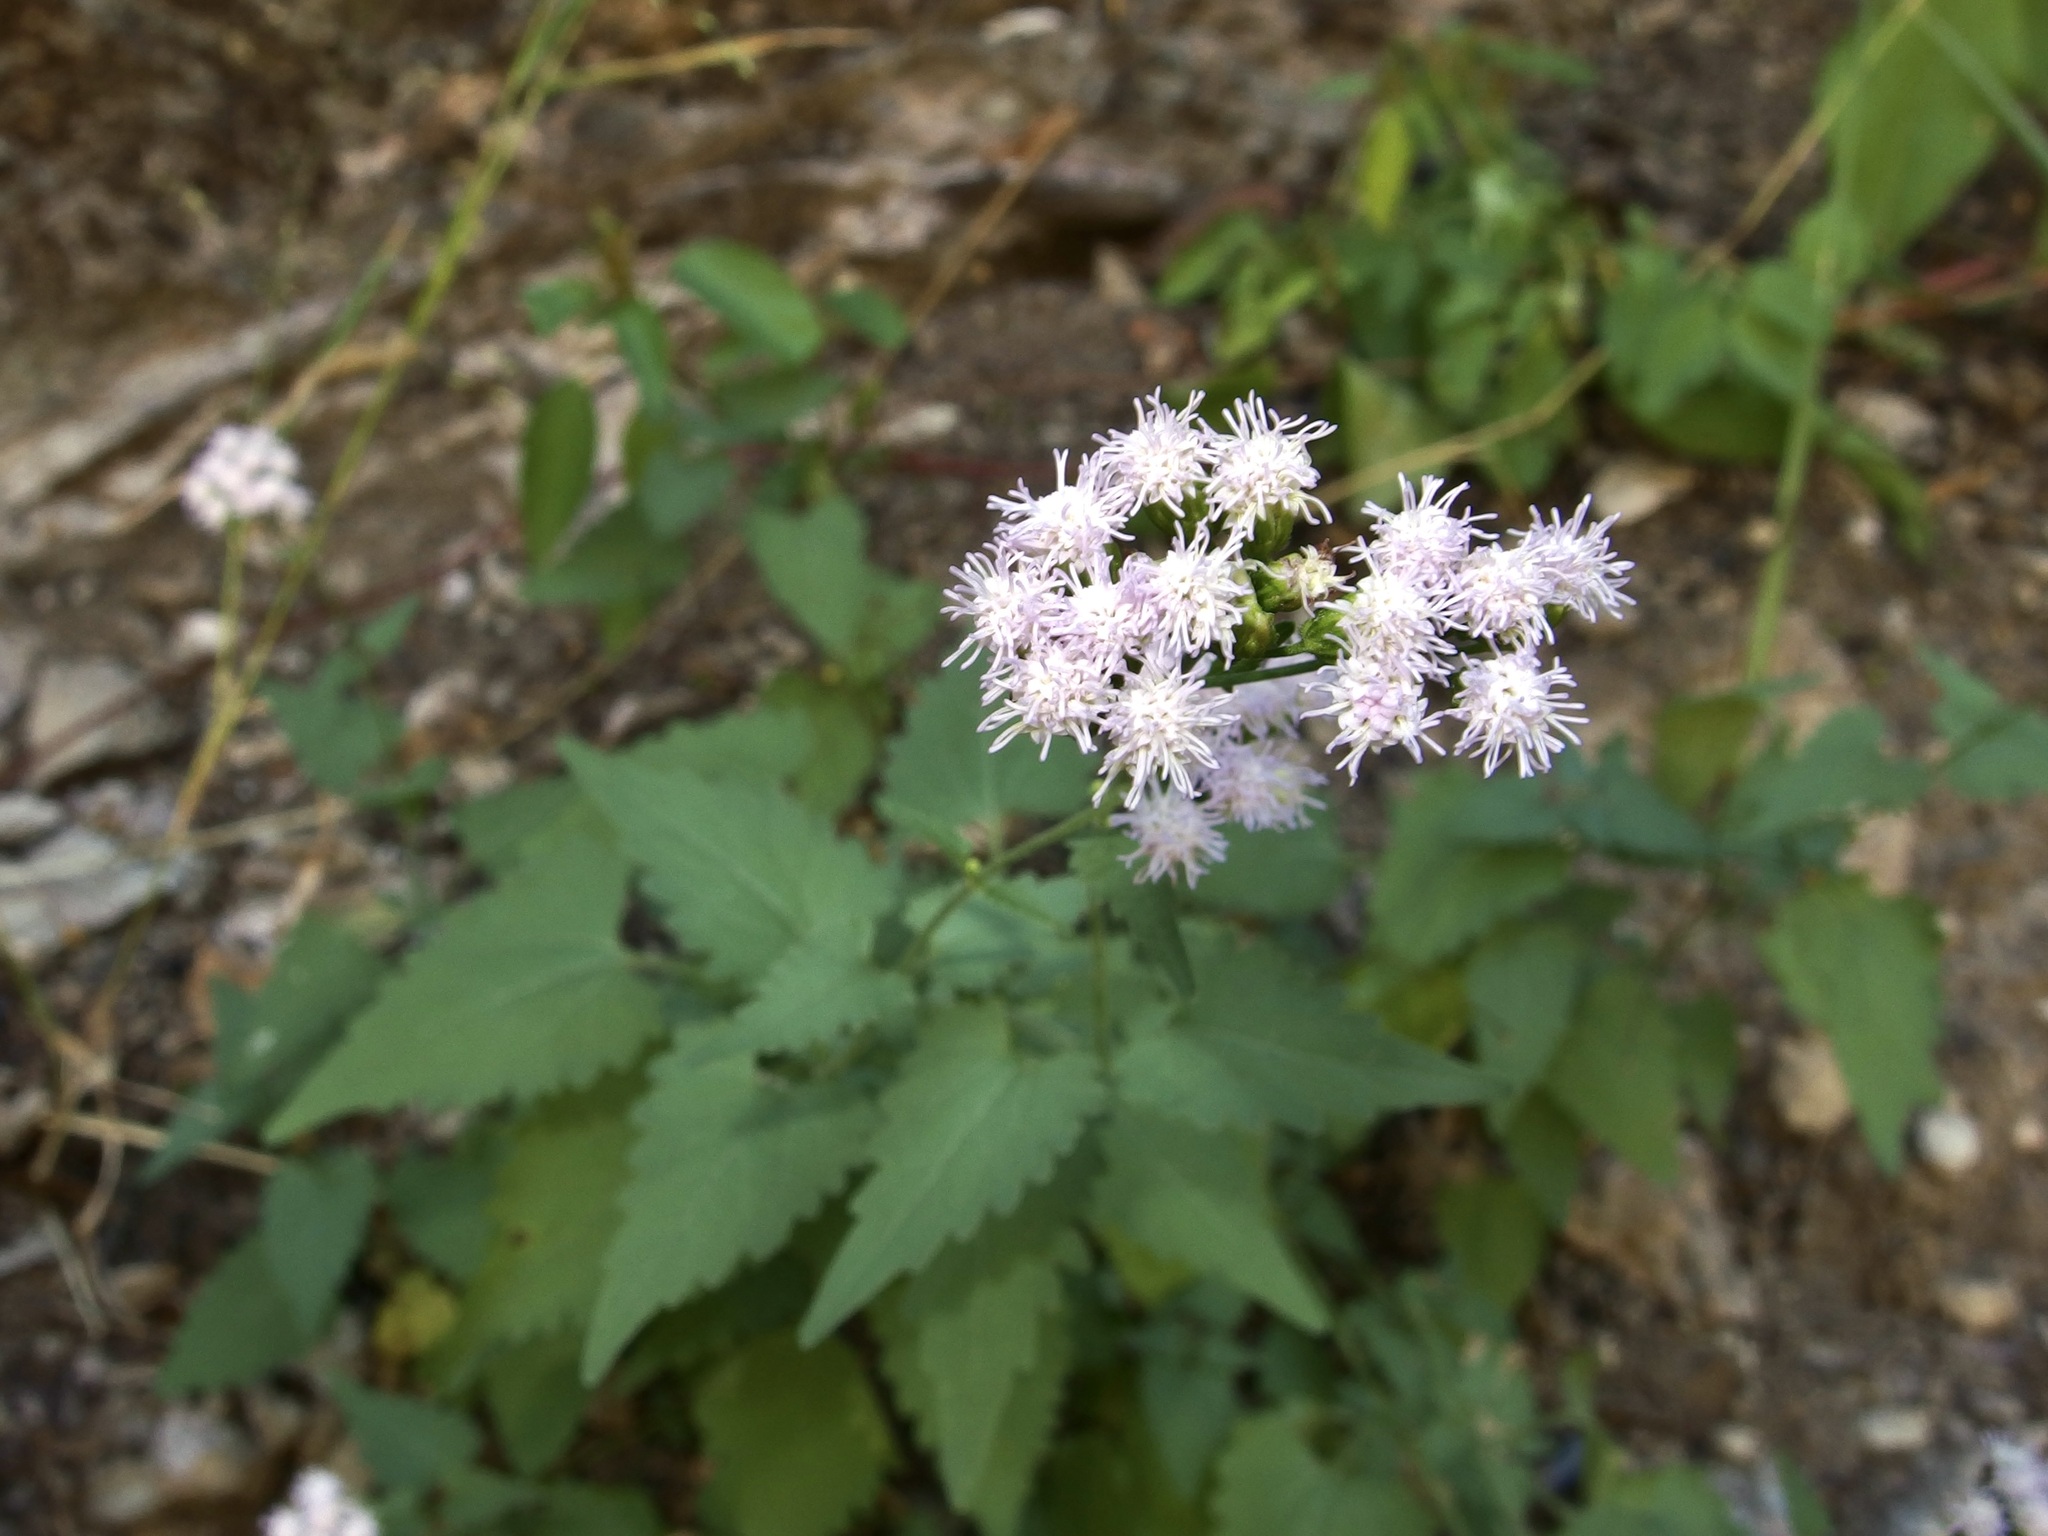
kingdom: Plantae
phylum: Tracheophyta
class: Magnoliopsida
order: Asterales
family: Asteraceae
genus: Fleischmannia
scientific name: Fleischmannia sonorae
